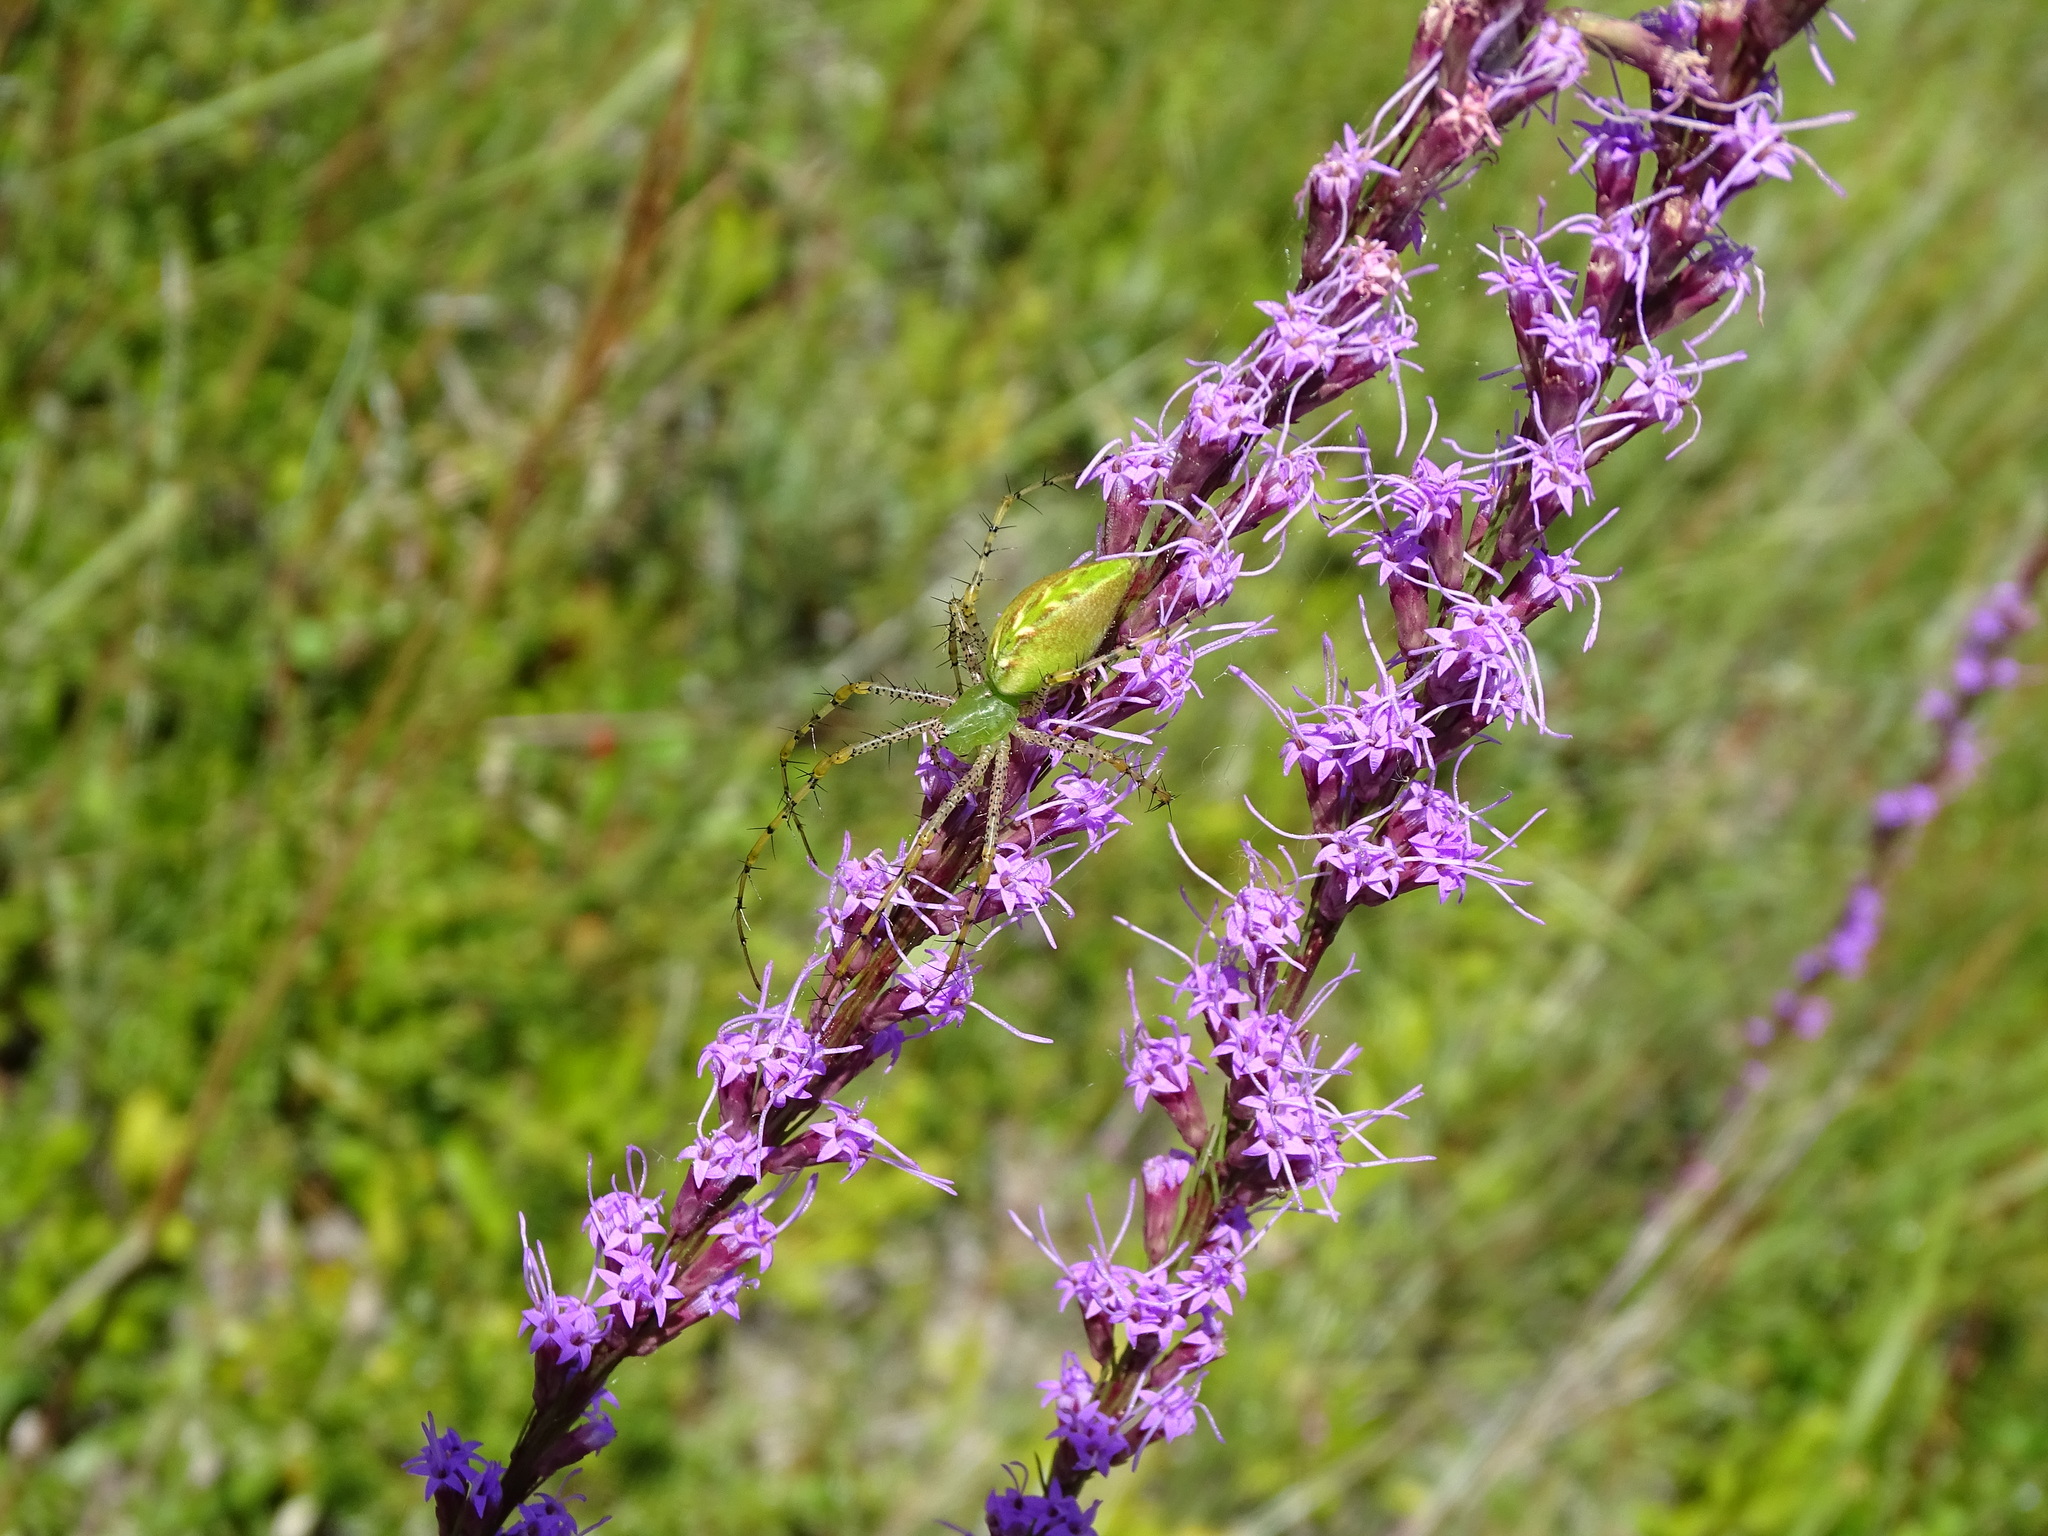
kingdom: Animalia
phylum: Arthropoda
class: Arachnida
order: Araneae
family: Oxyopidae
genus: Peucetia
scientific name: Peucetia viridans
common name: Lynx spiders
